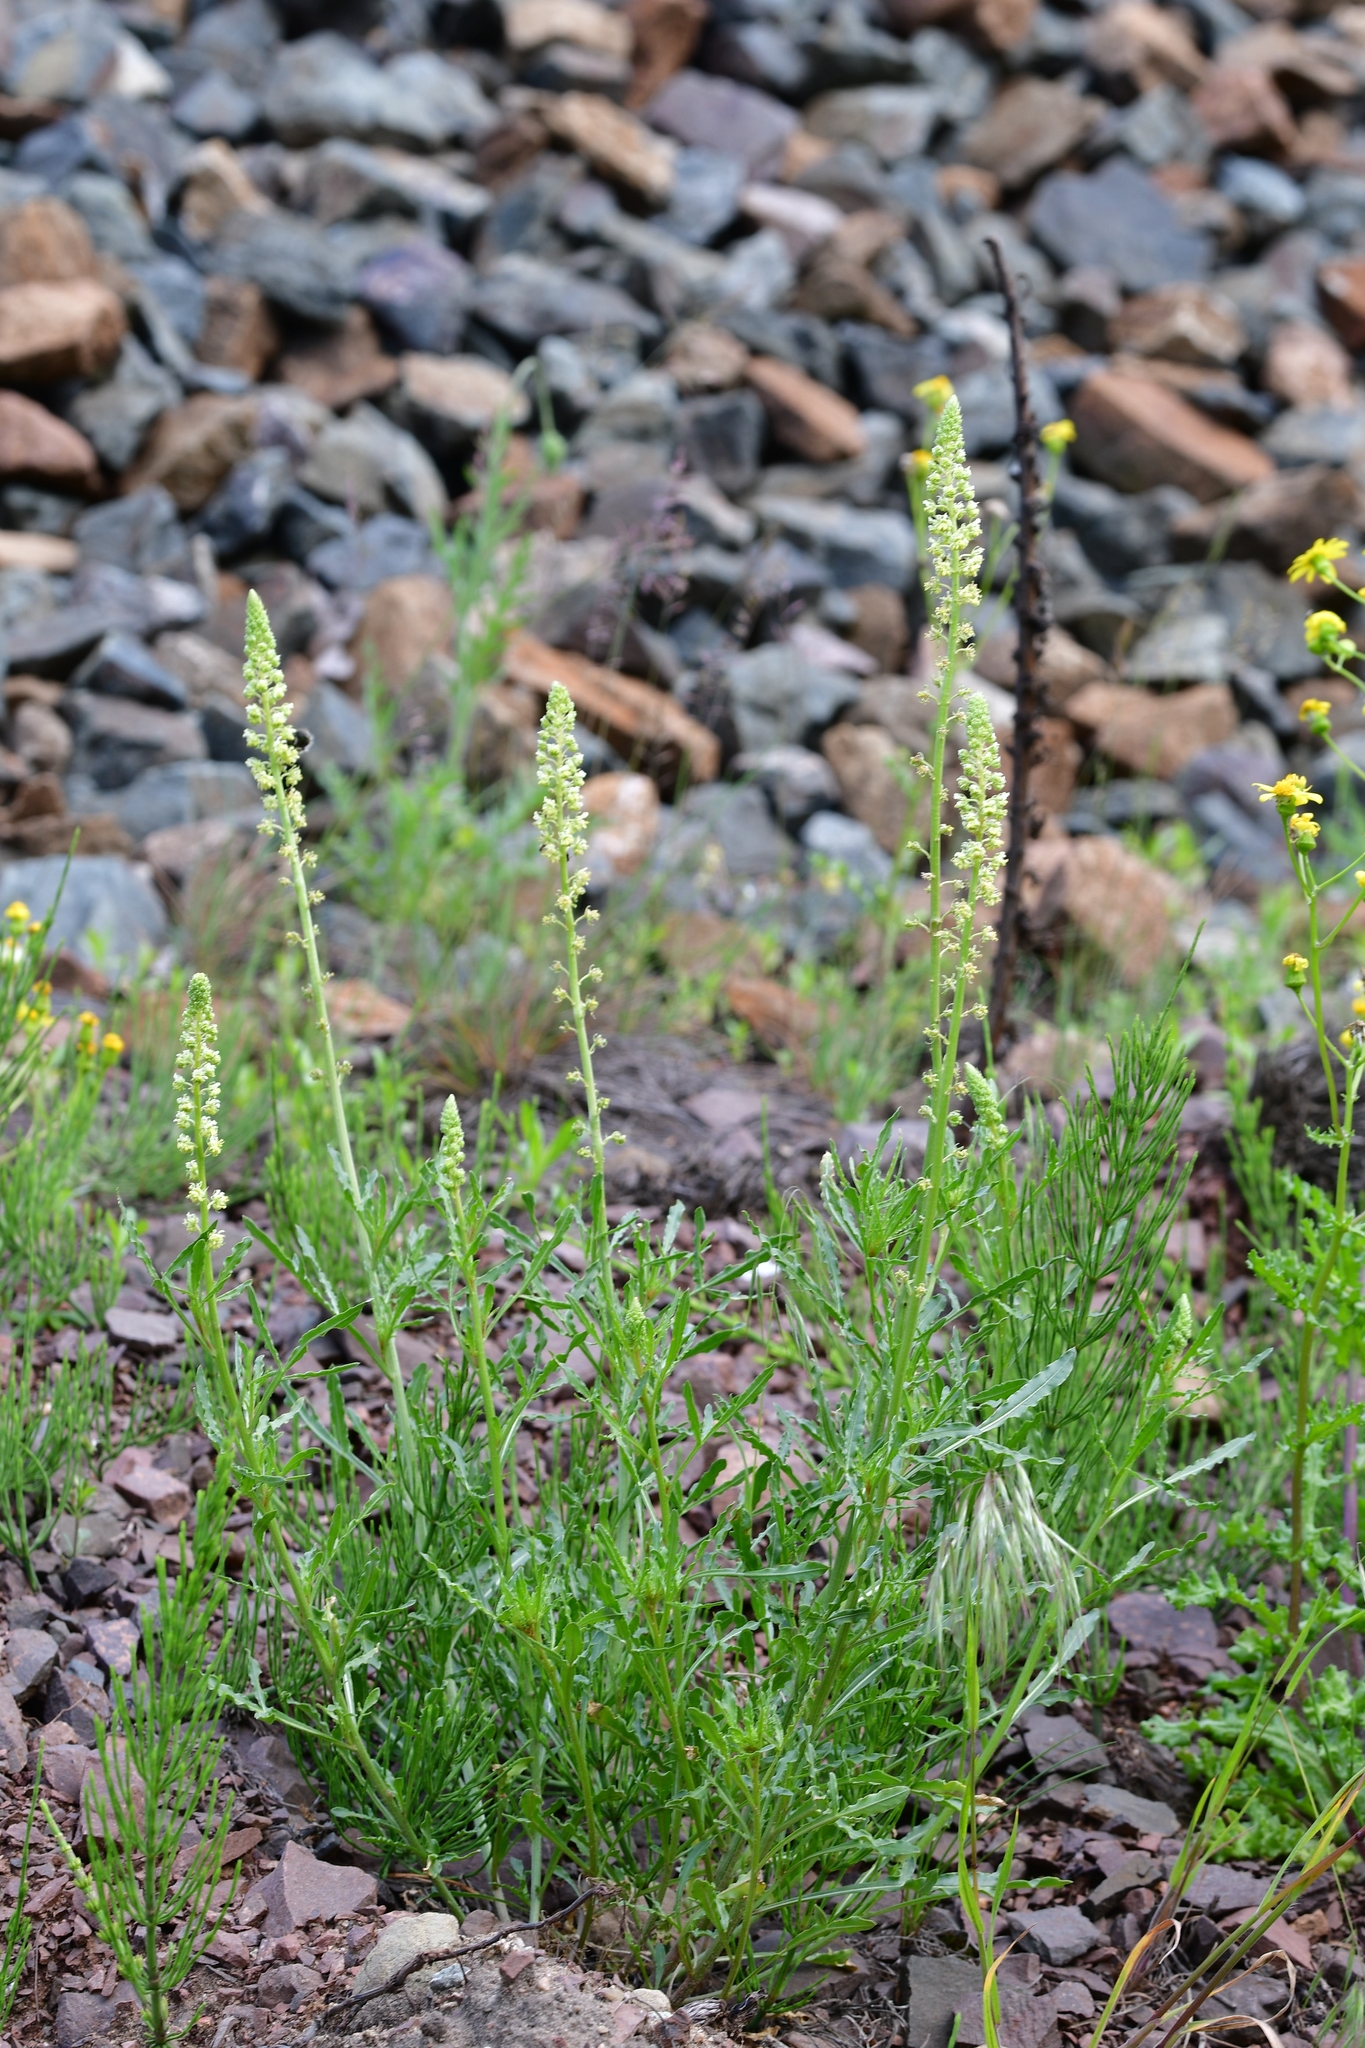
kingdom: Plantae
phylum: Tracheophyta
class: Magnoliopsida
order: Brassicales
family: Resedaceae
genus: Reseda
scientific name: Reseda lutea
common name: Wild mignonette
